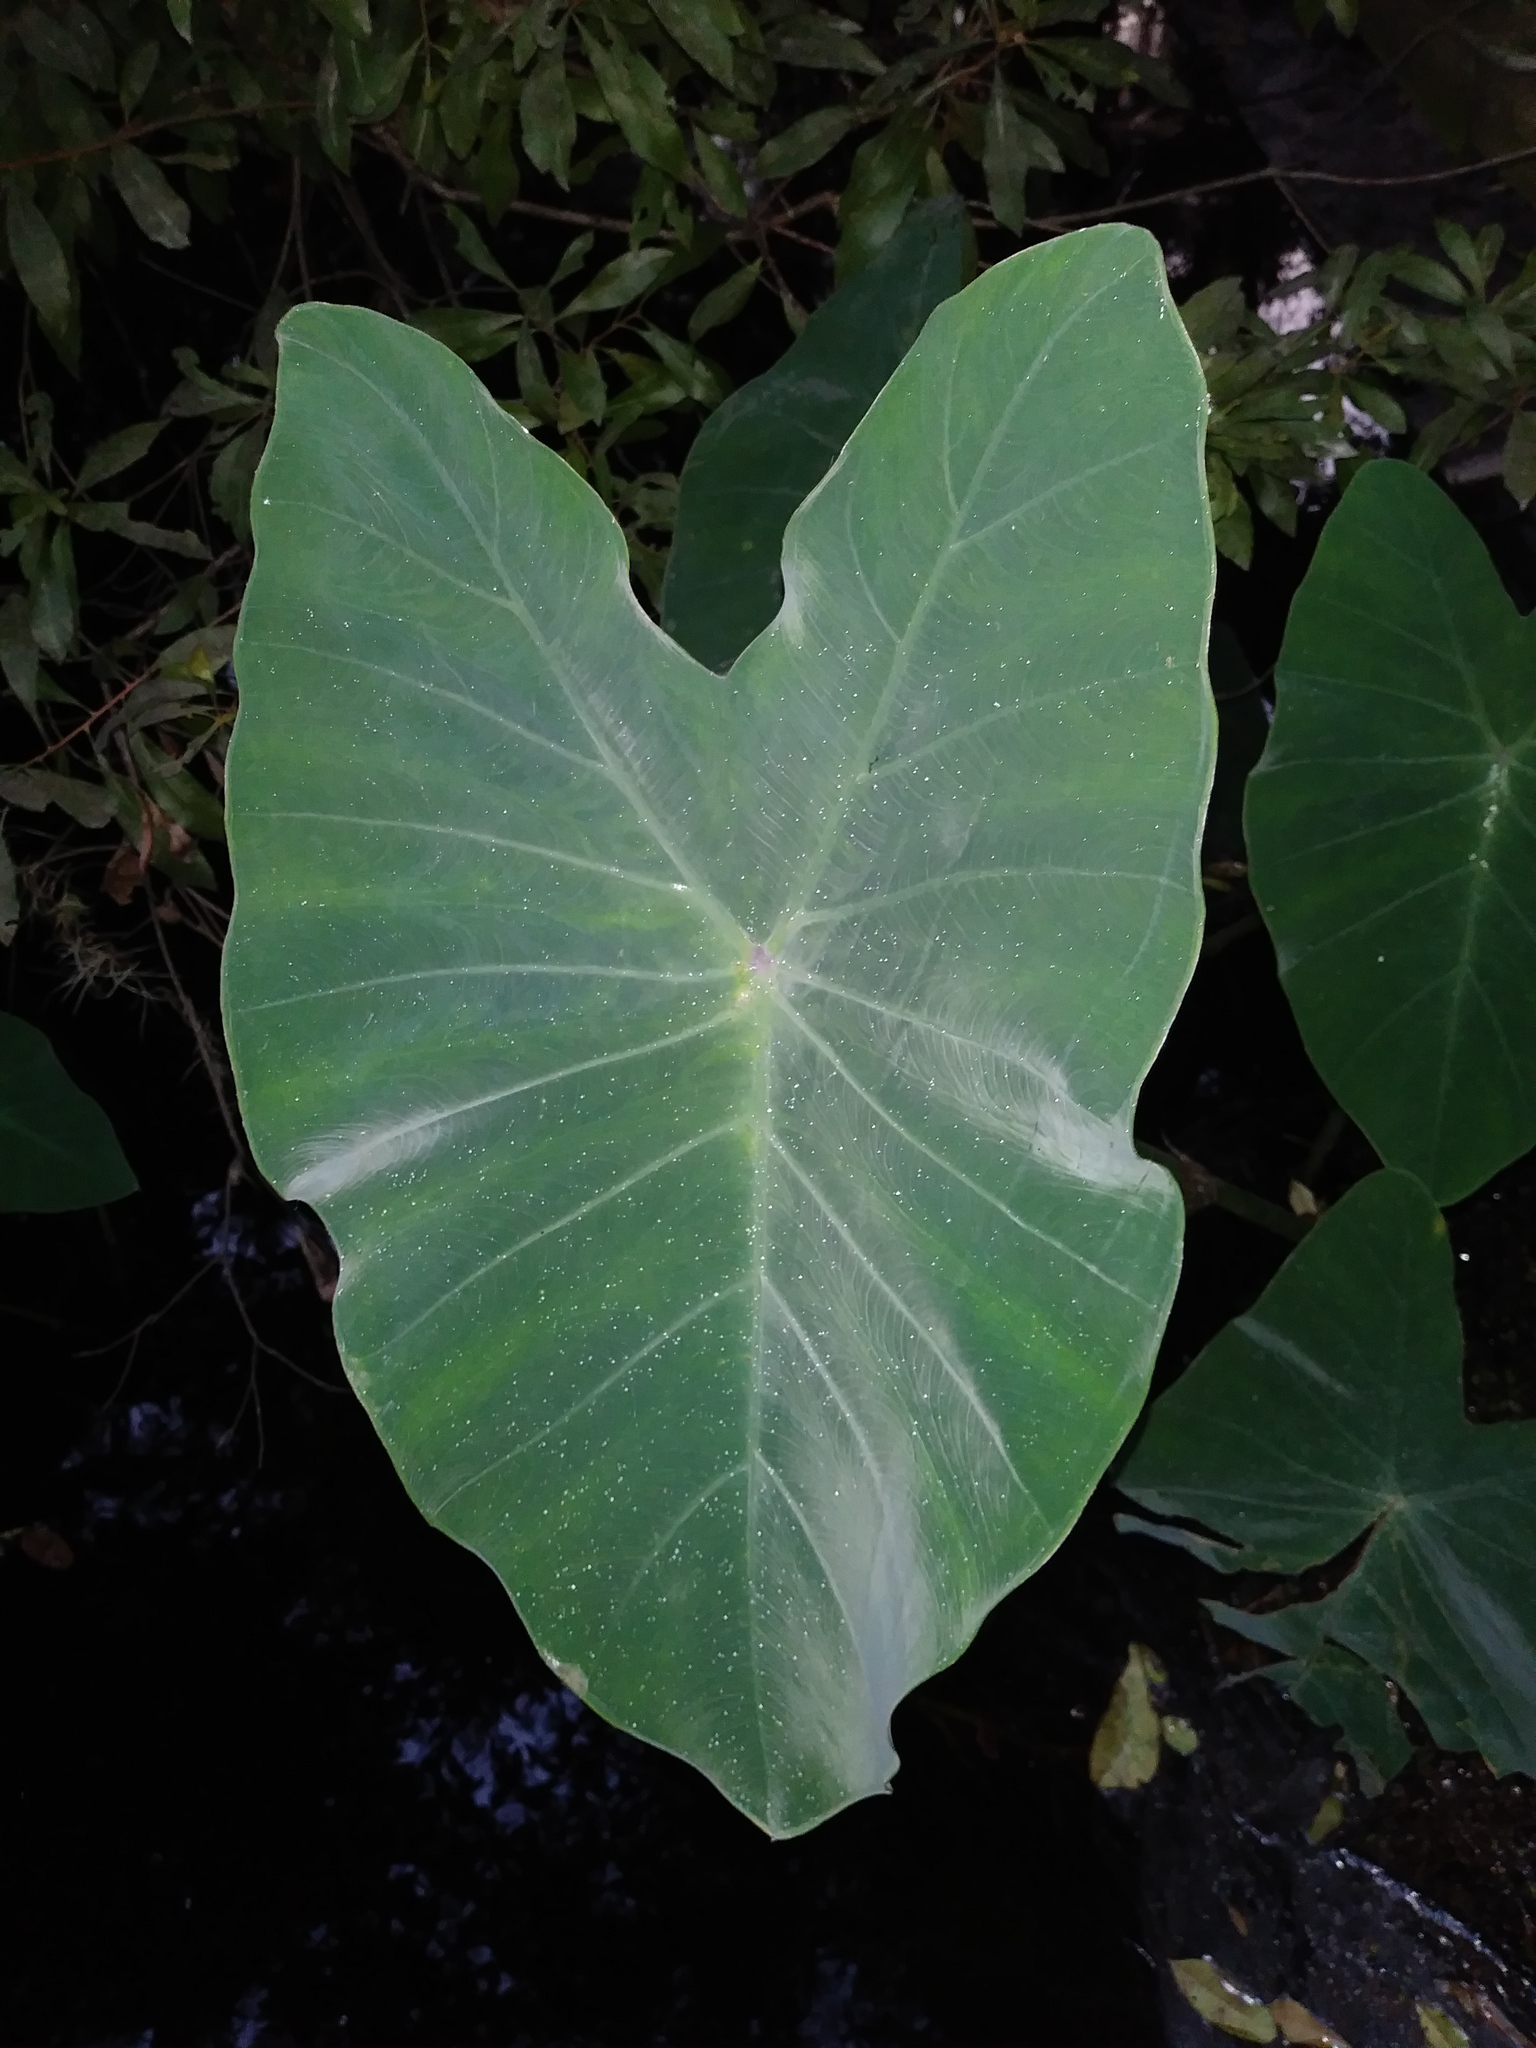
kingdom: Plantae
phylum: Tracheophyta
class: Liliopsida
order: Alismatales
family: Araceae
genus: Colocasia
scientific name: Colocasia esculenta
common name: Taro
